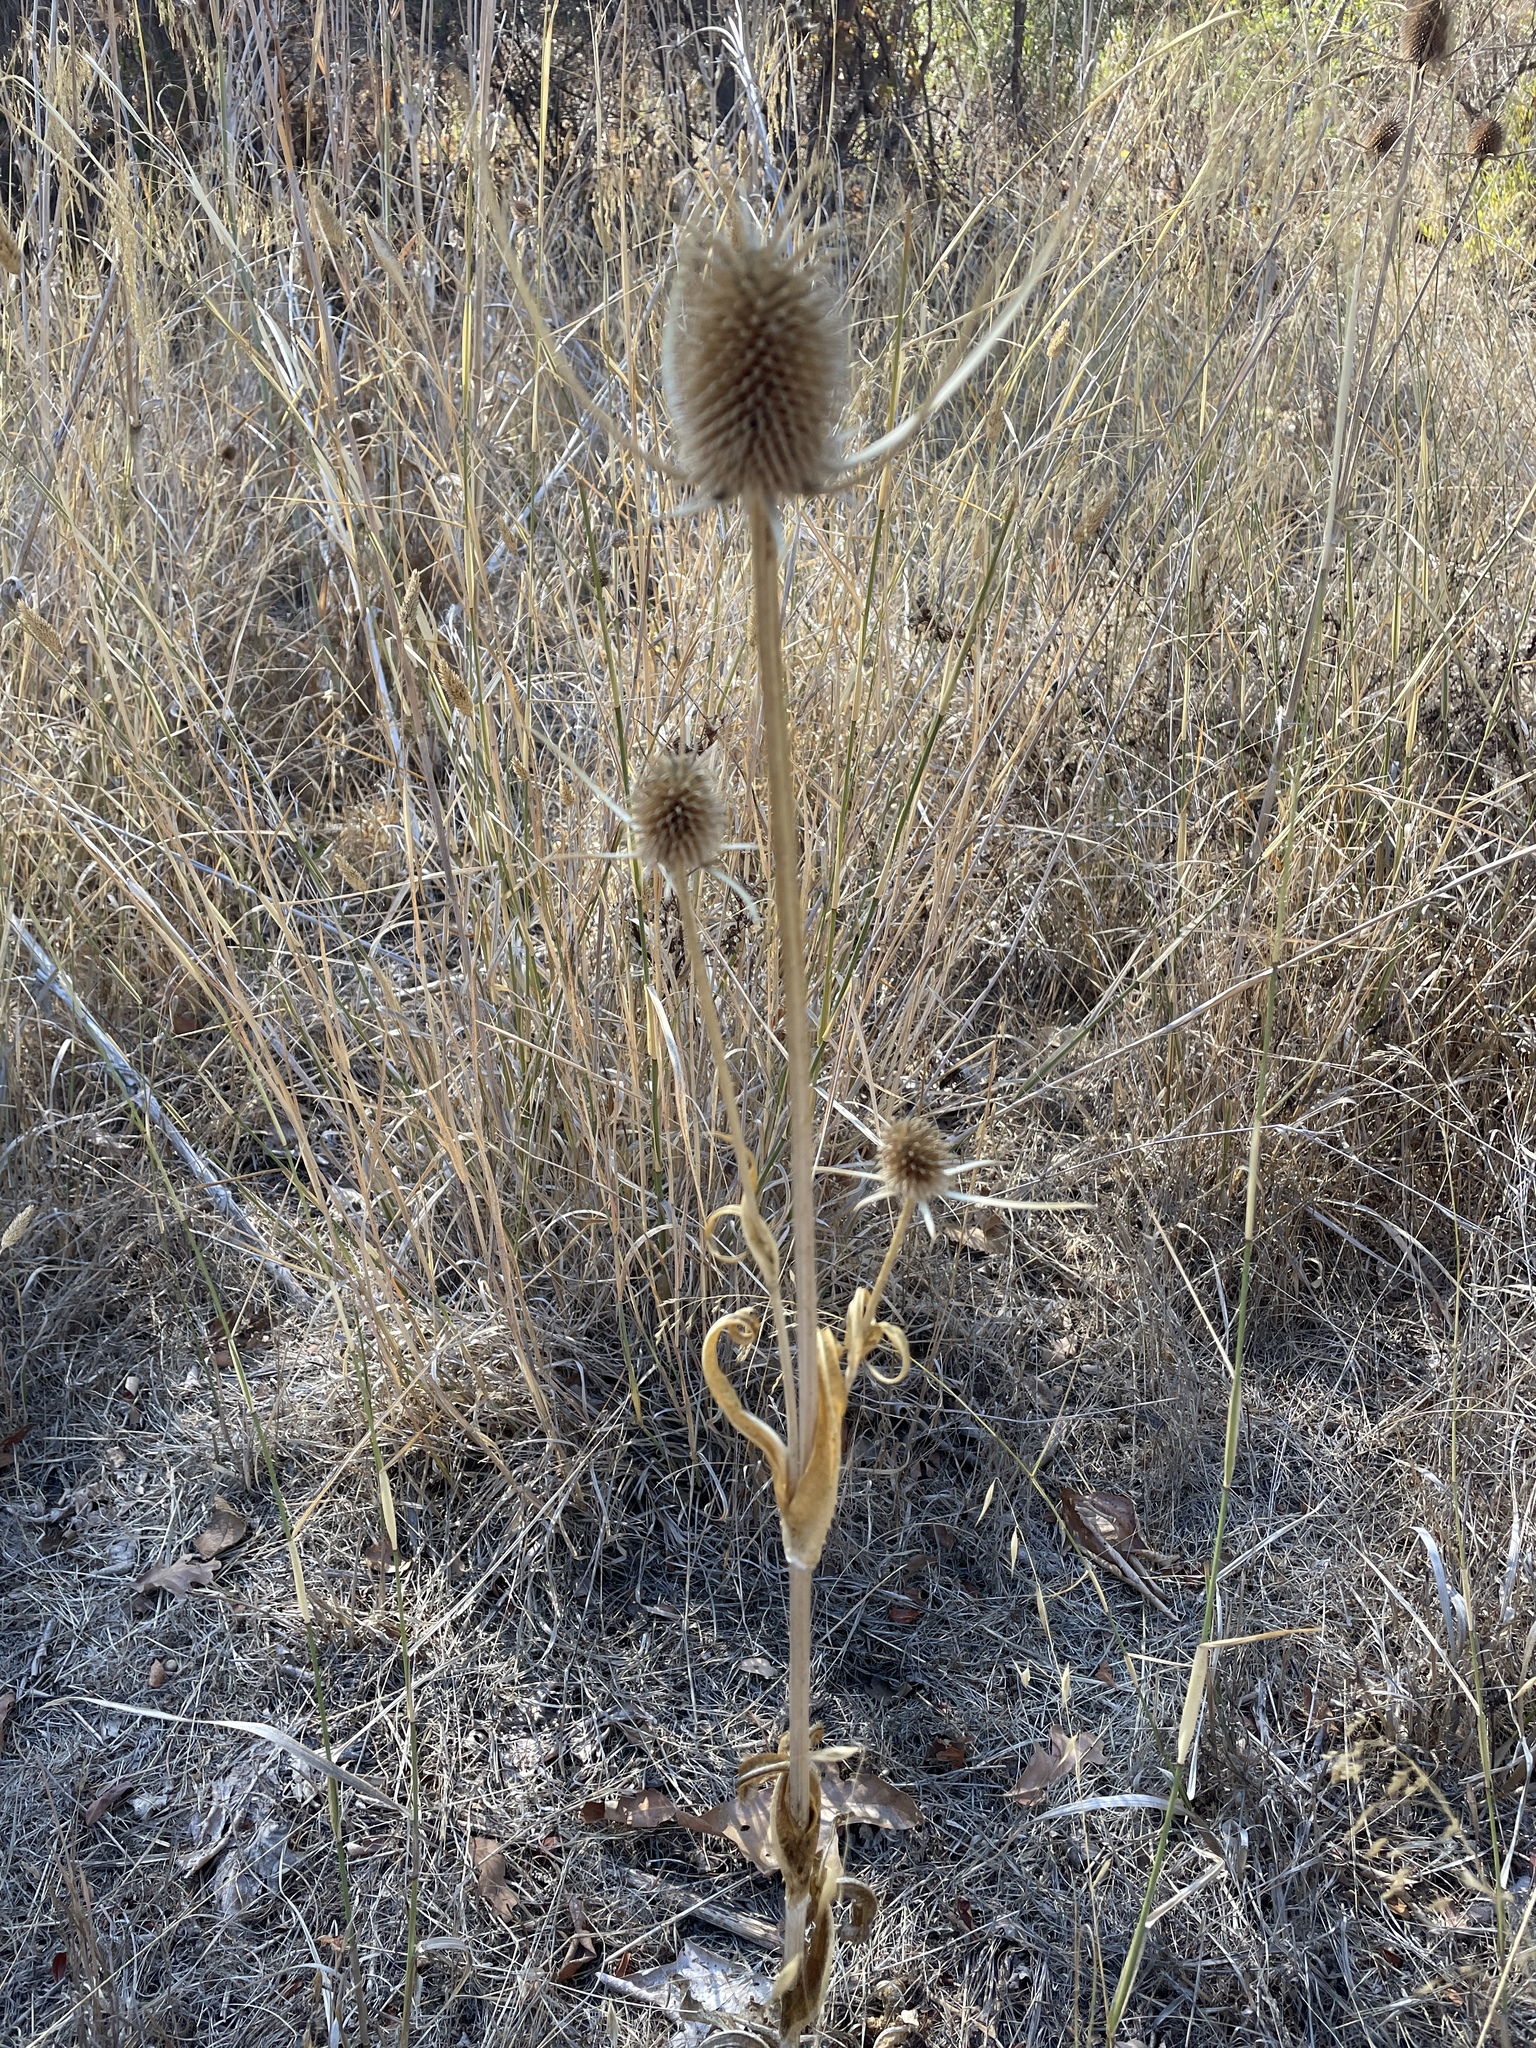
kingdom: Plantae
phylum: Tracheophyta
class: Magnoliopsida
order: Dipsacales
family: Caprifoliaceae
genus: Dipsacus
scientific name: Dipsacus sativus
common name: Fuller's teasel
